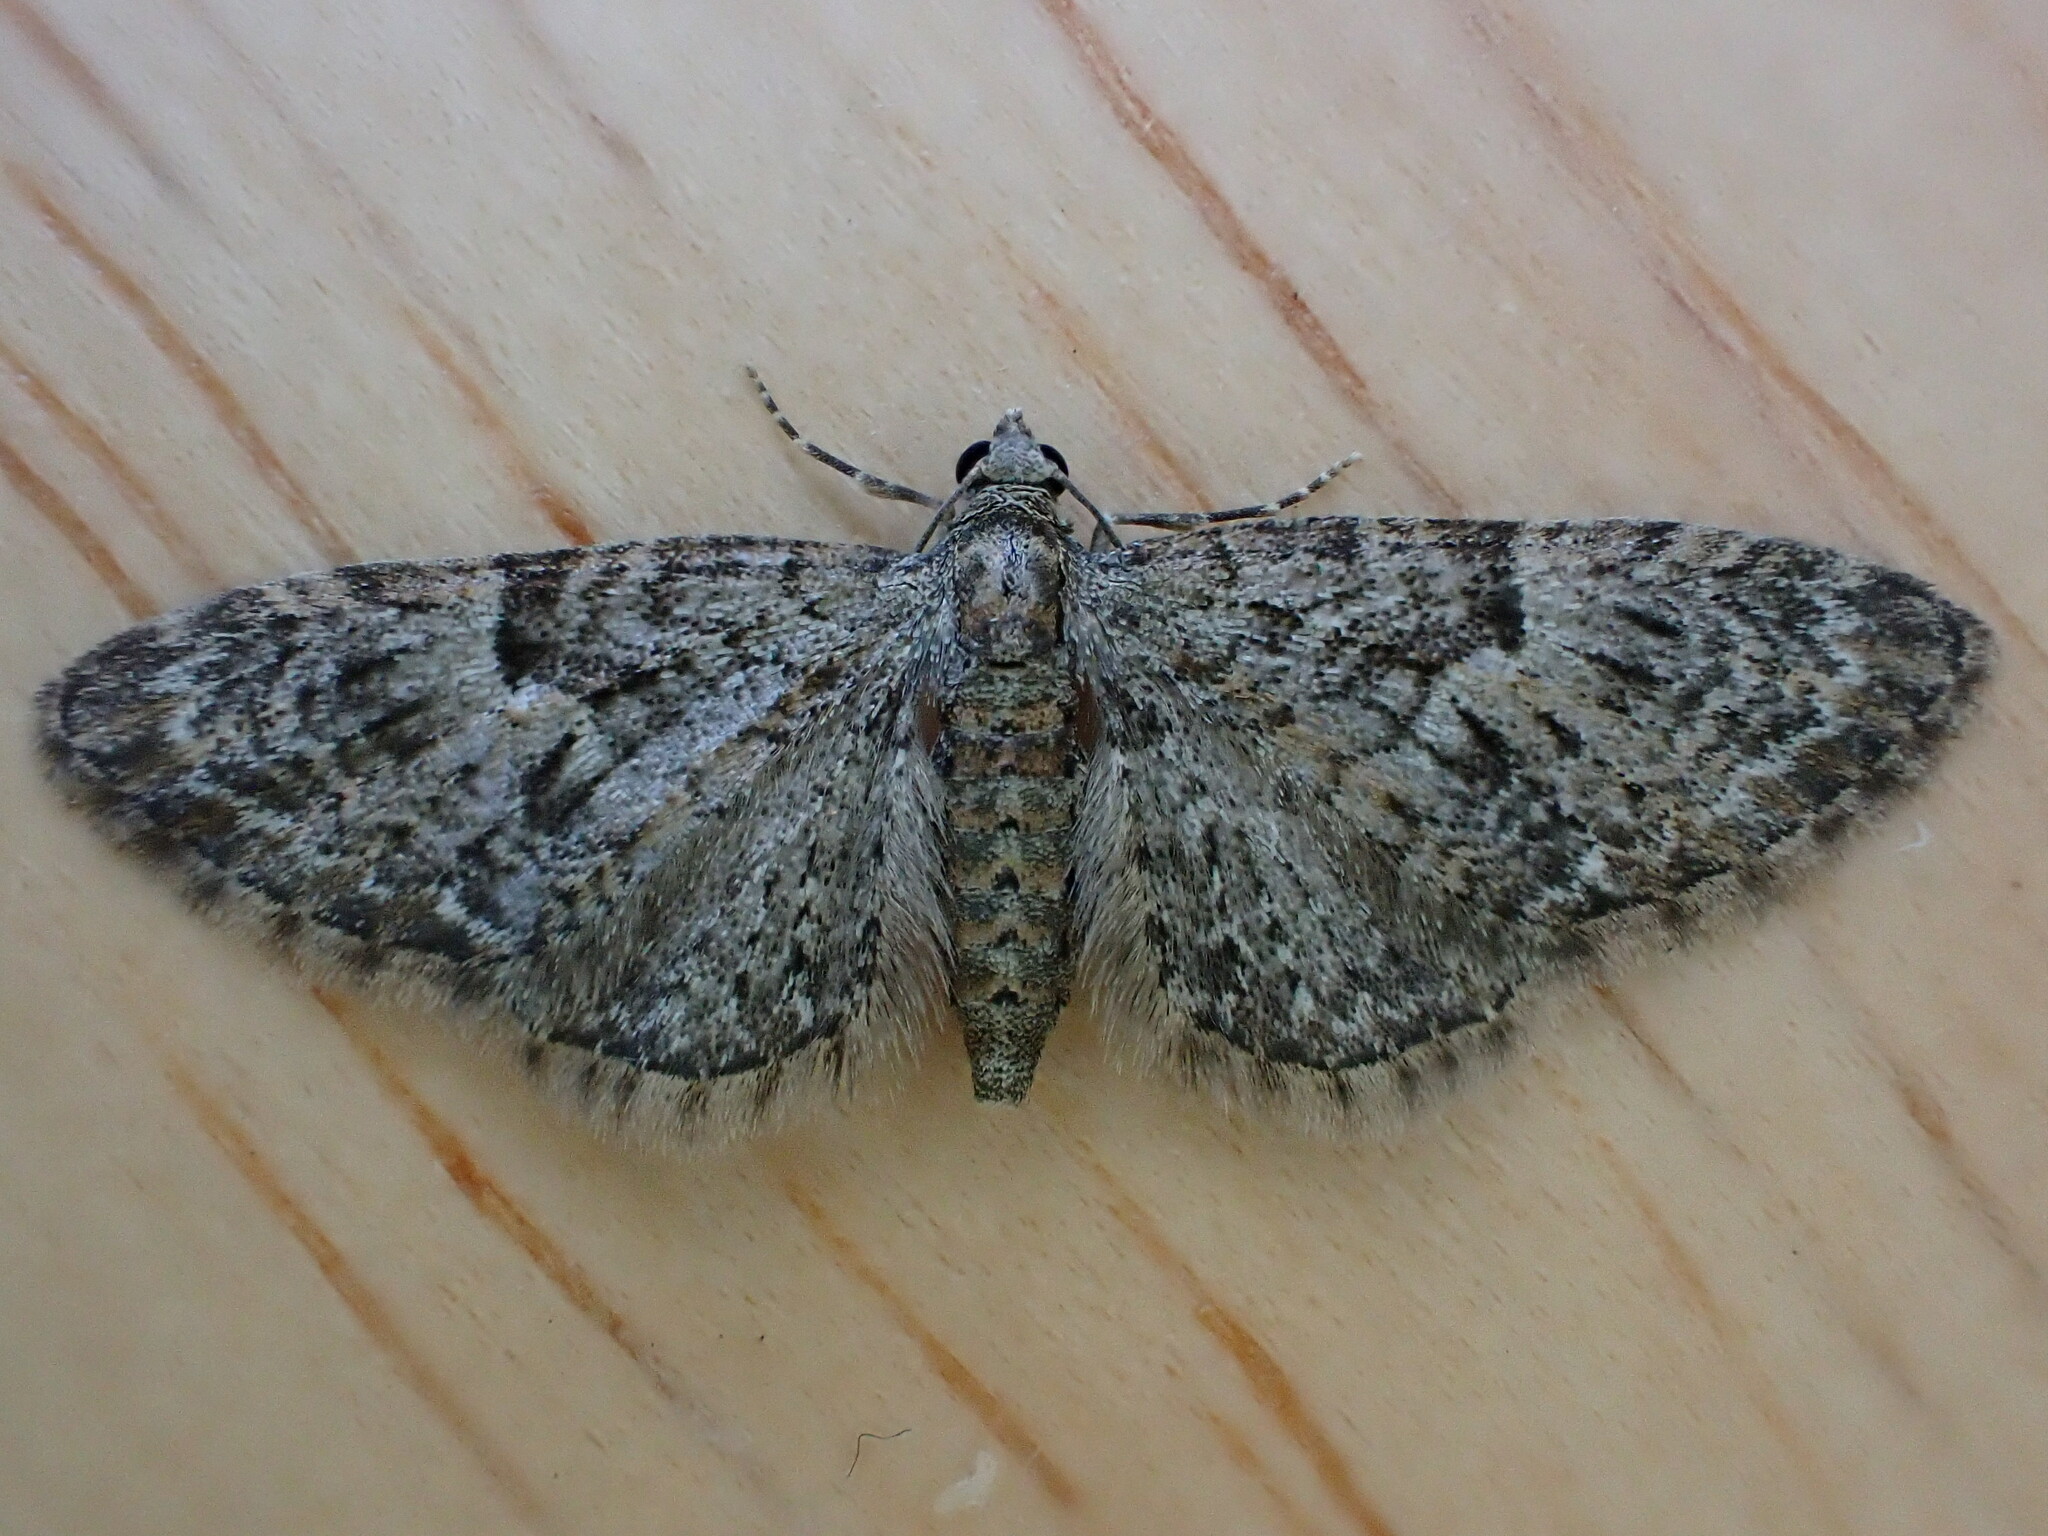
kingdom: Animalia
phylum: Arthropoda
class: Insecta
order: Lepidoptera
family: Geometridae
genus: Eupithecia
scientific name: Eupithecia dodoneata
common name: Oak-tree pug
